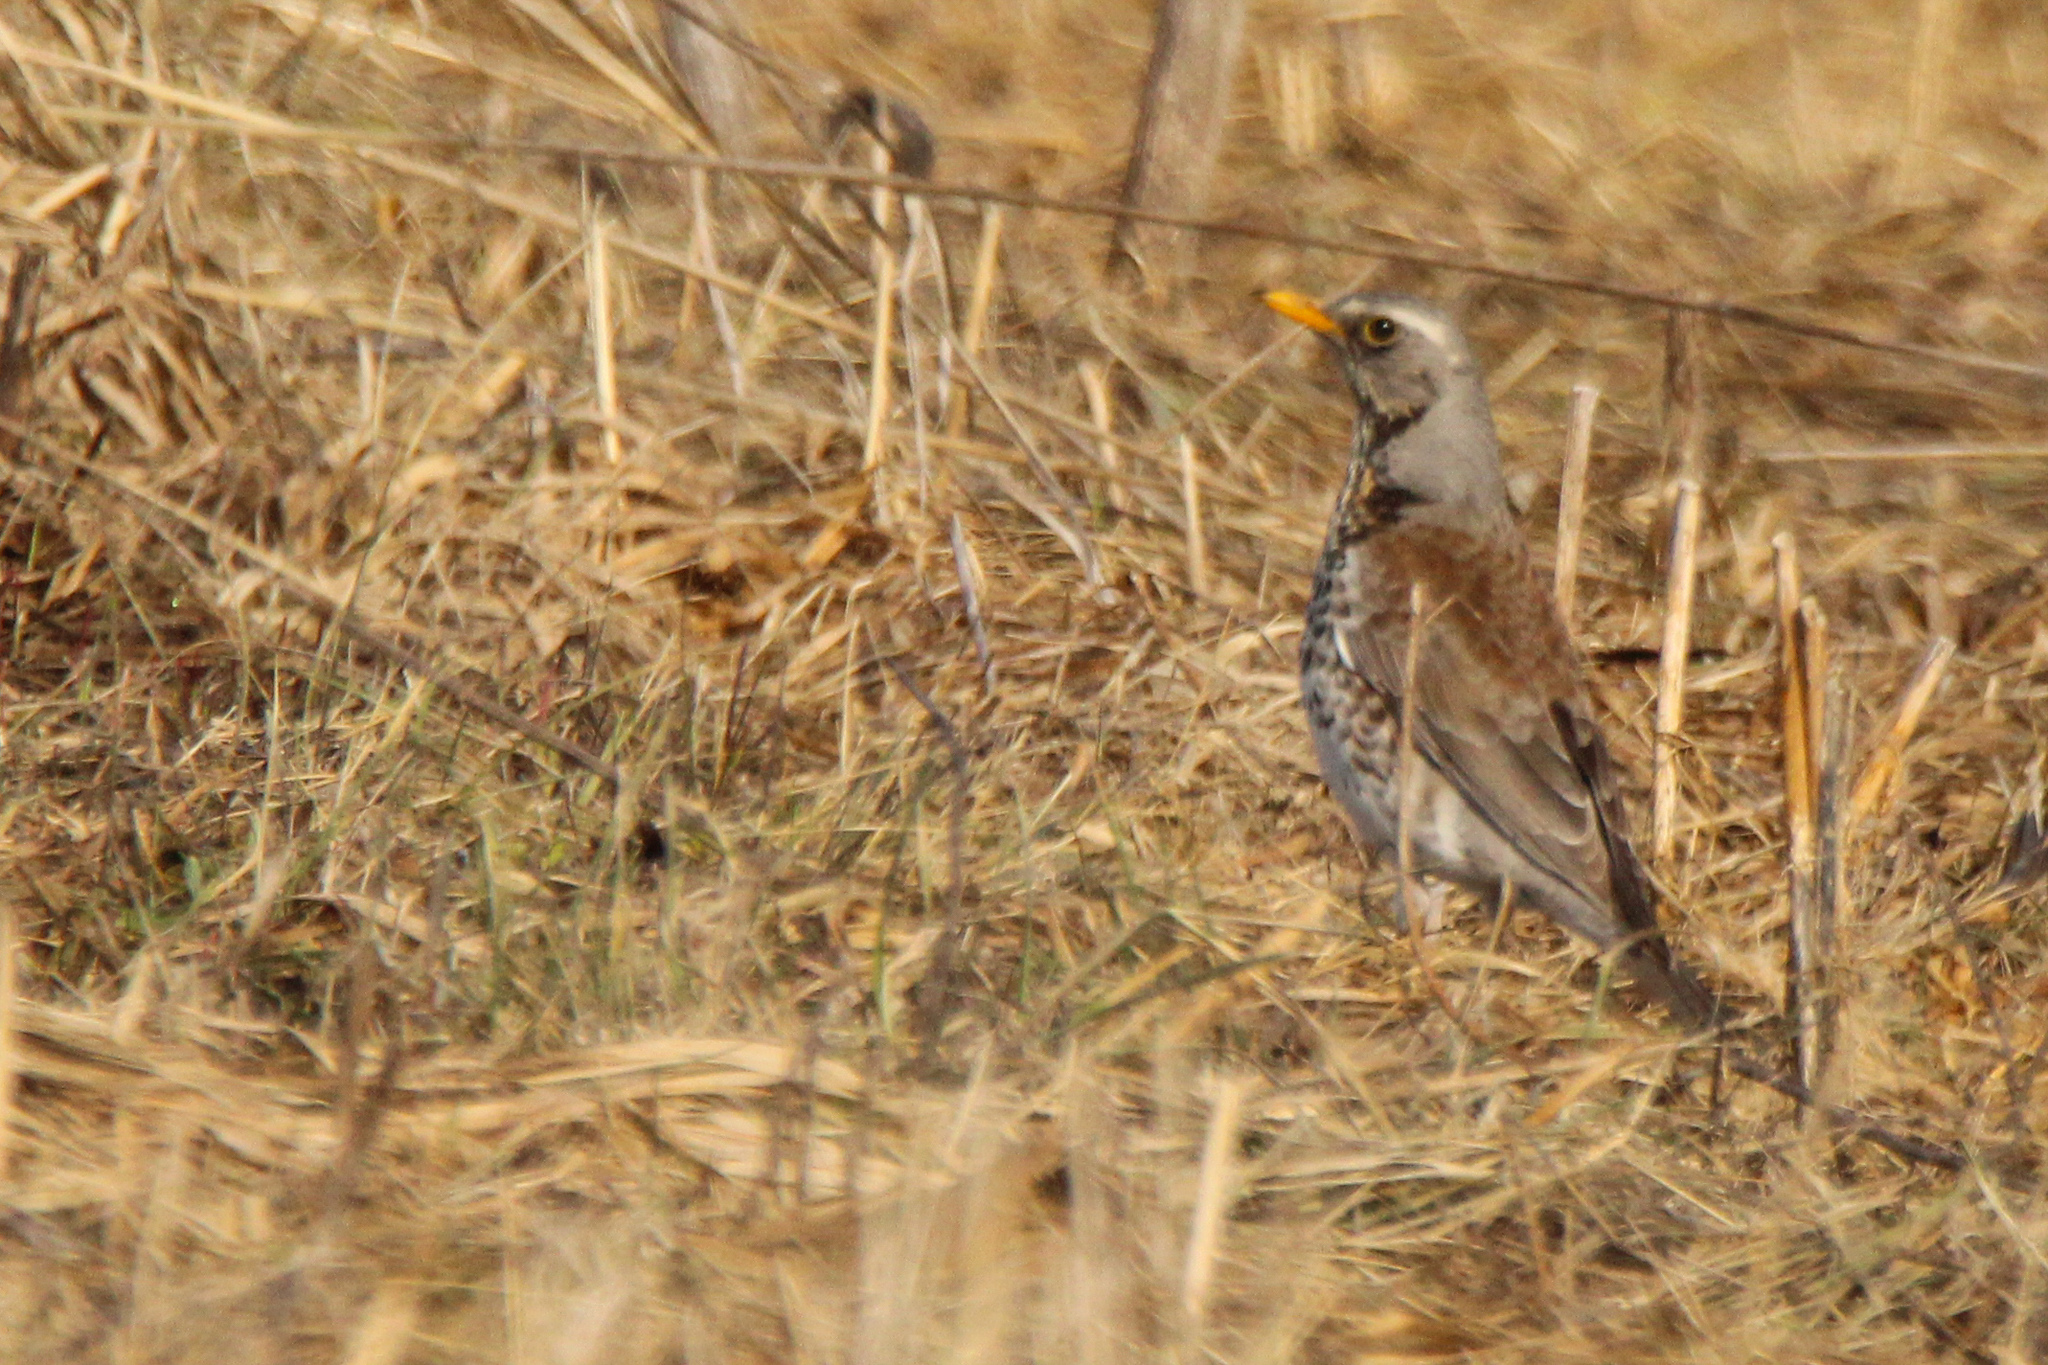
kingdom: Animalia
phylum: Chordata
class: Aves
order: Passeriformes
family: Turdidae
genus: Turdus
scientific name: Turdus pilaris
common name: Fieldfare
